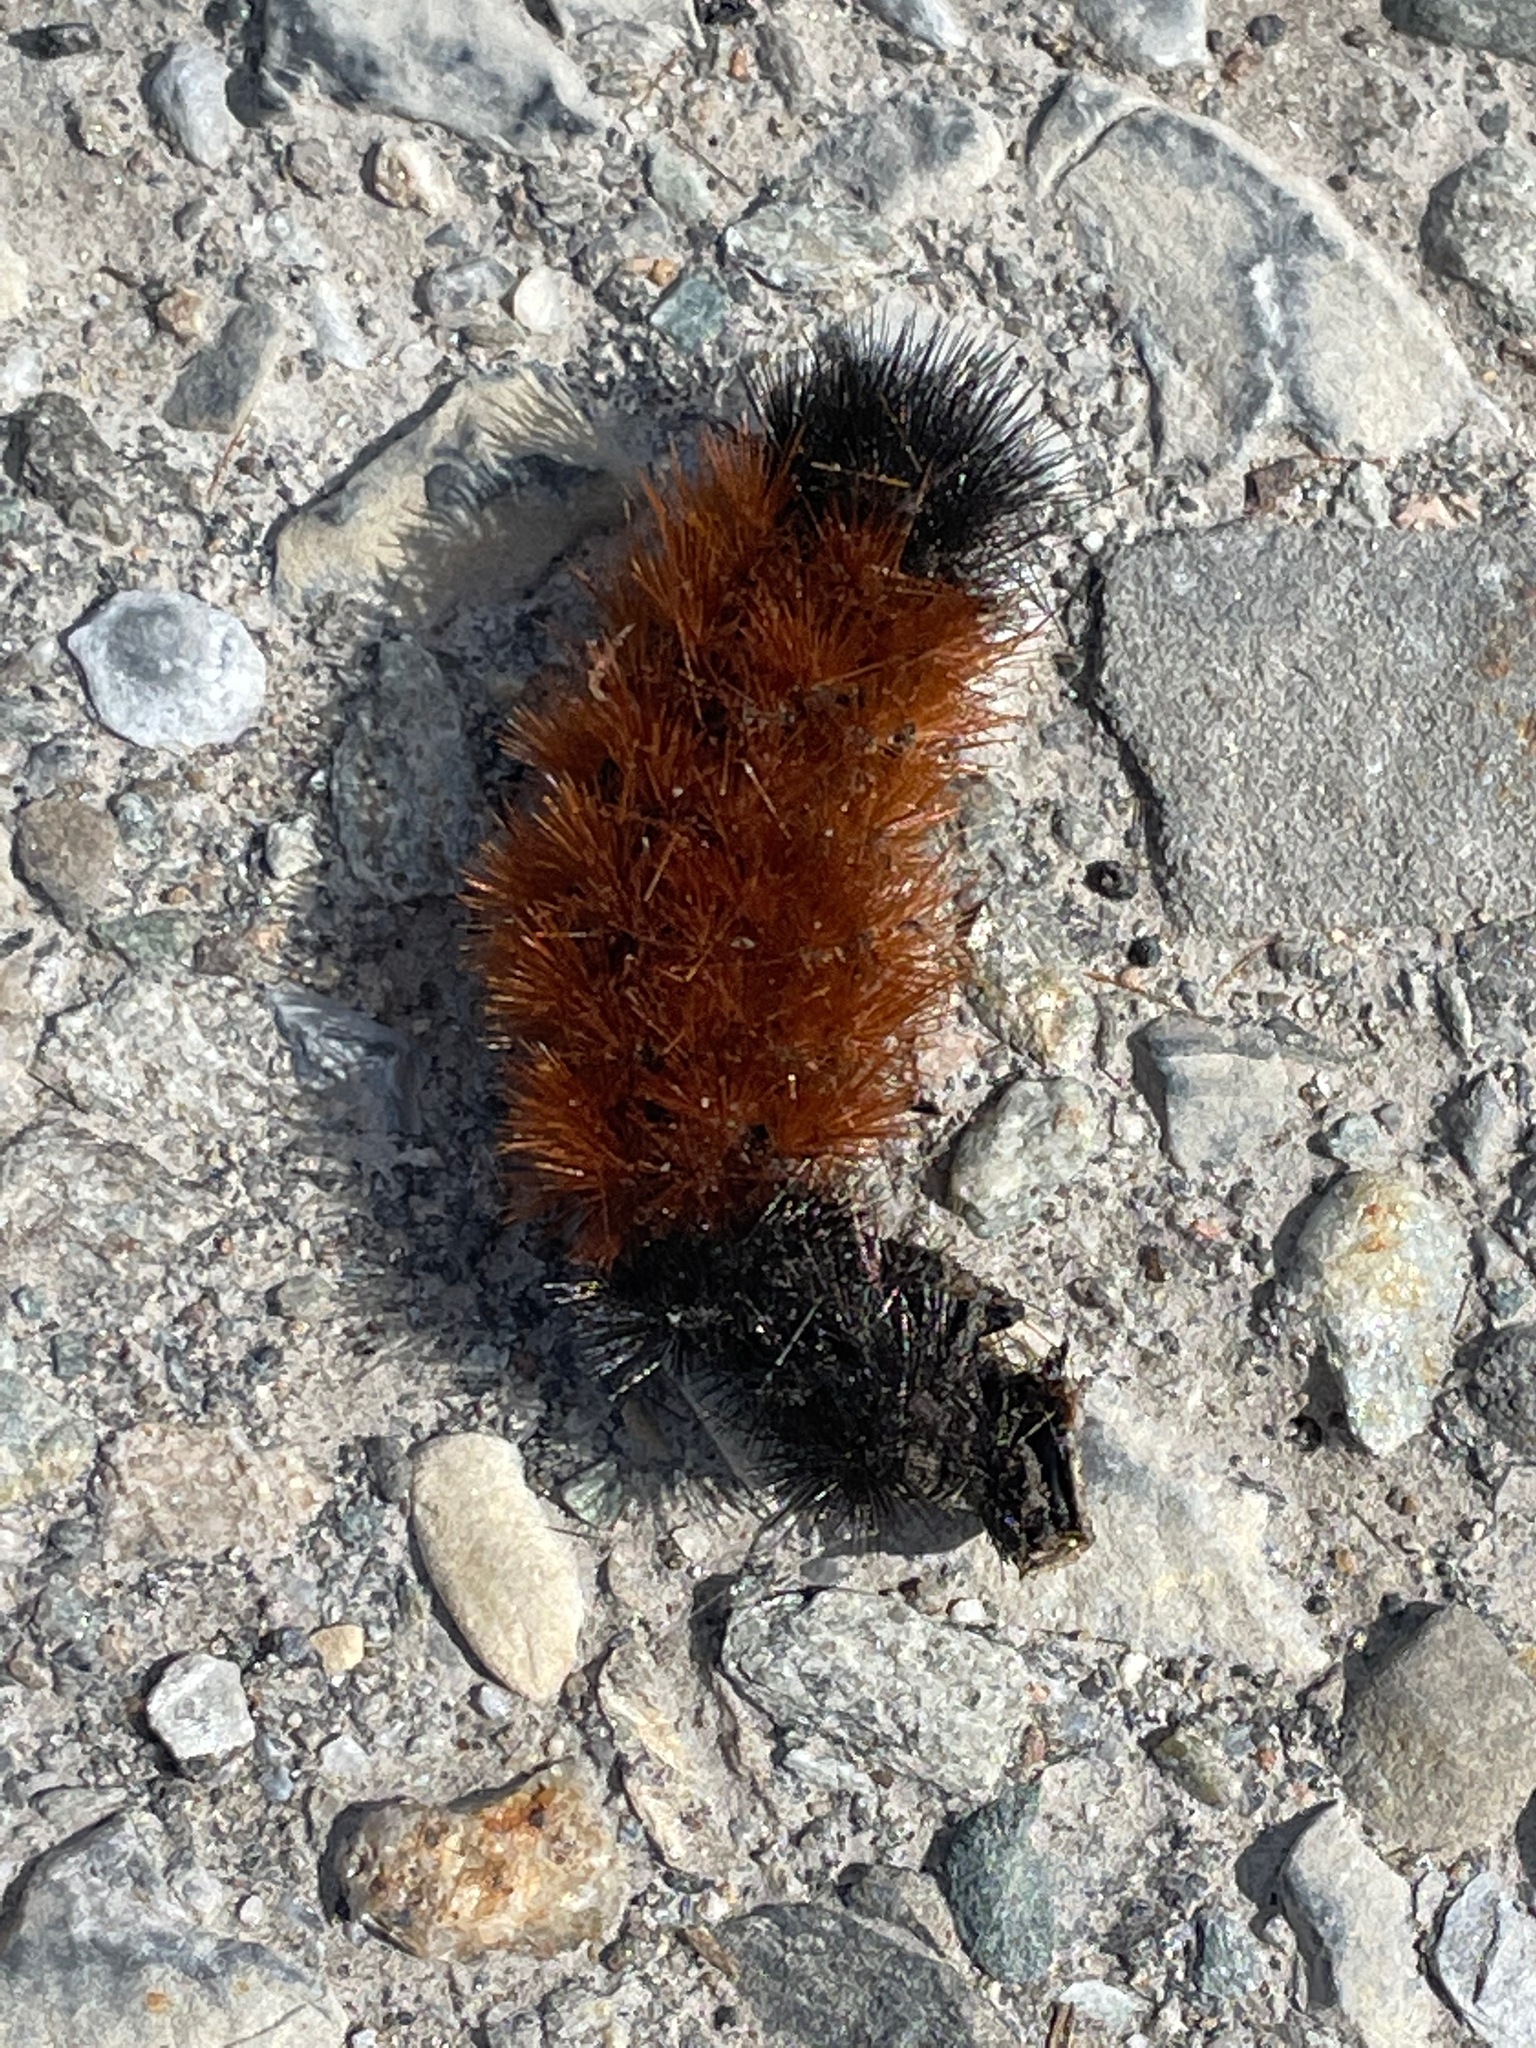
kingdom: Animalia
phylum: Arthropoda
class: Insecta
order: Lepidoptera
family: Erebidae
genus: Pyrrharctia
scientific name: Pyrrharctia isabella
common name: Isabella tiger moth
